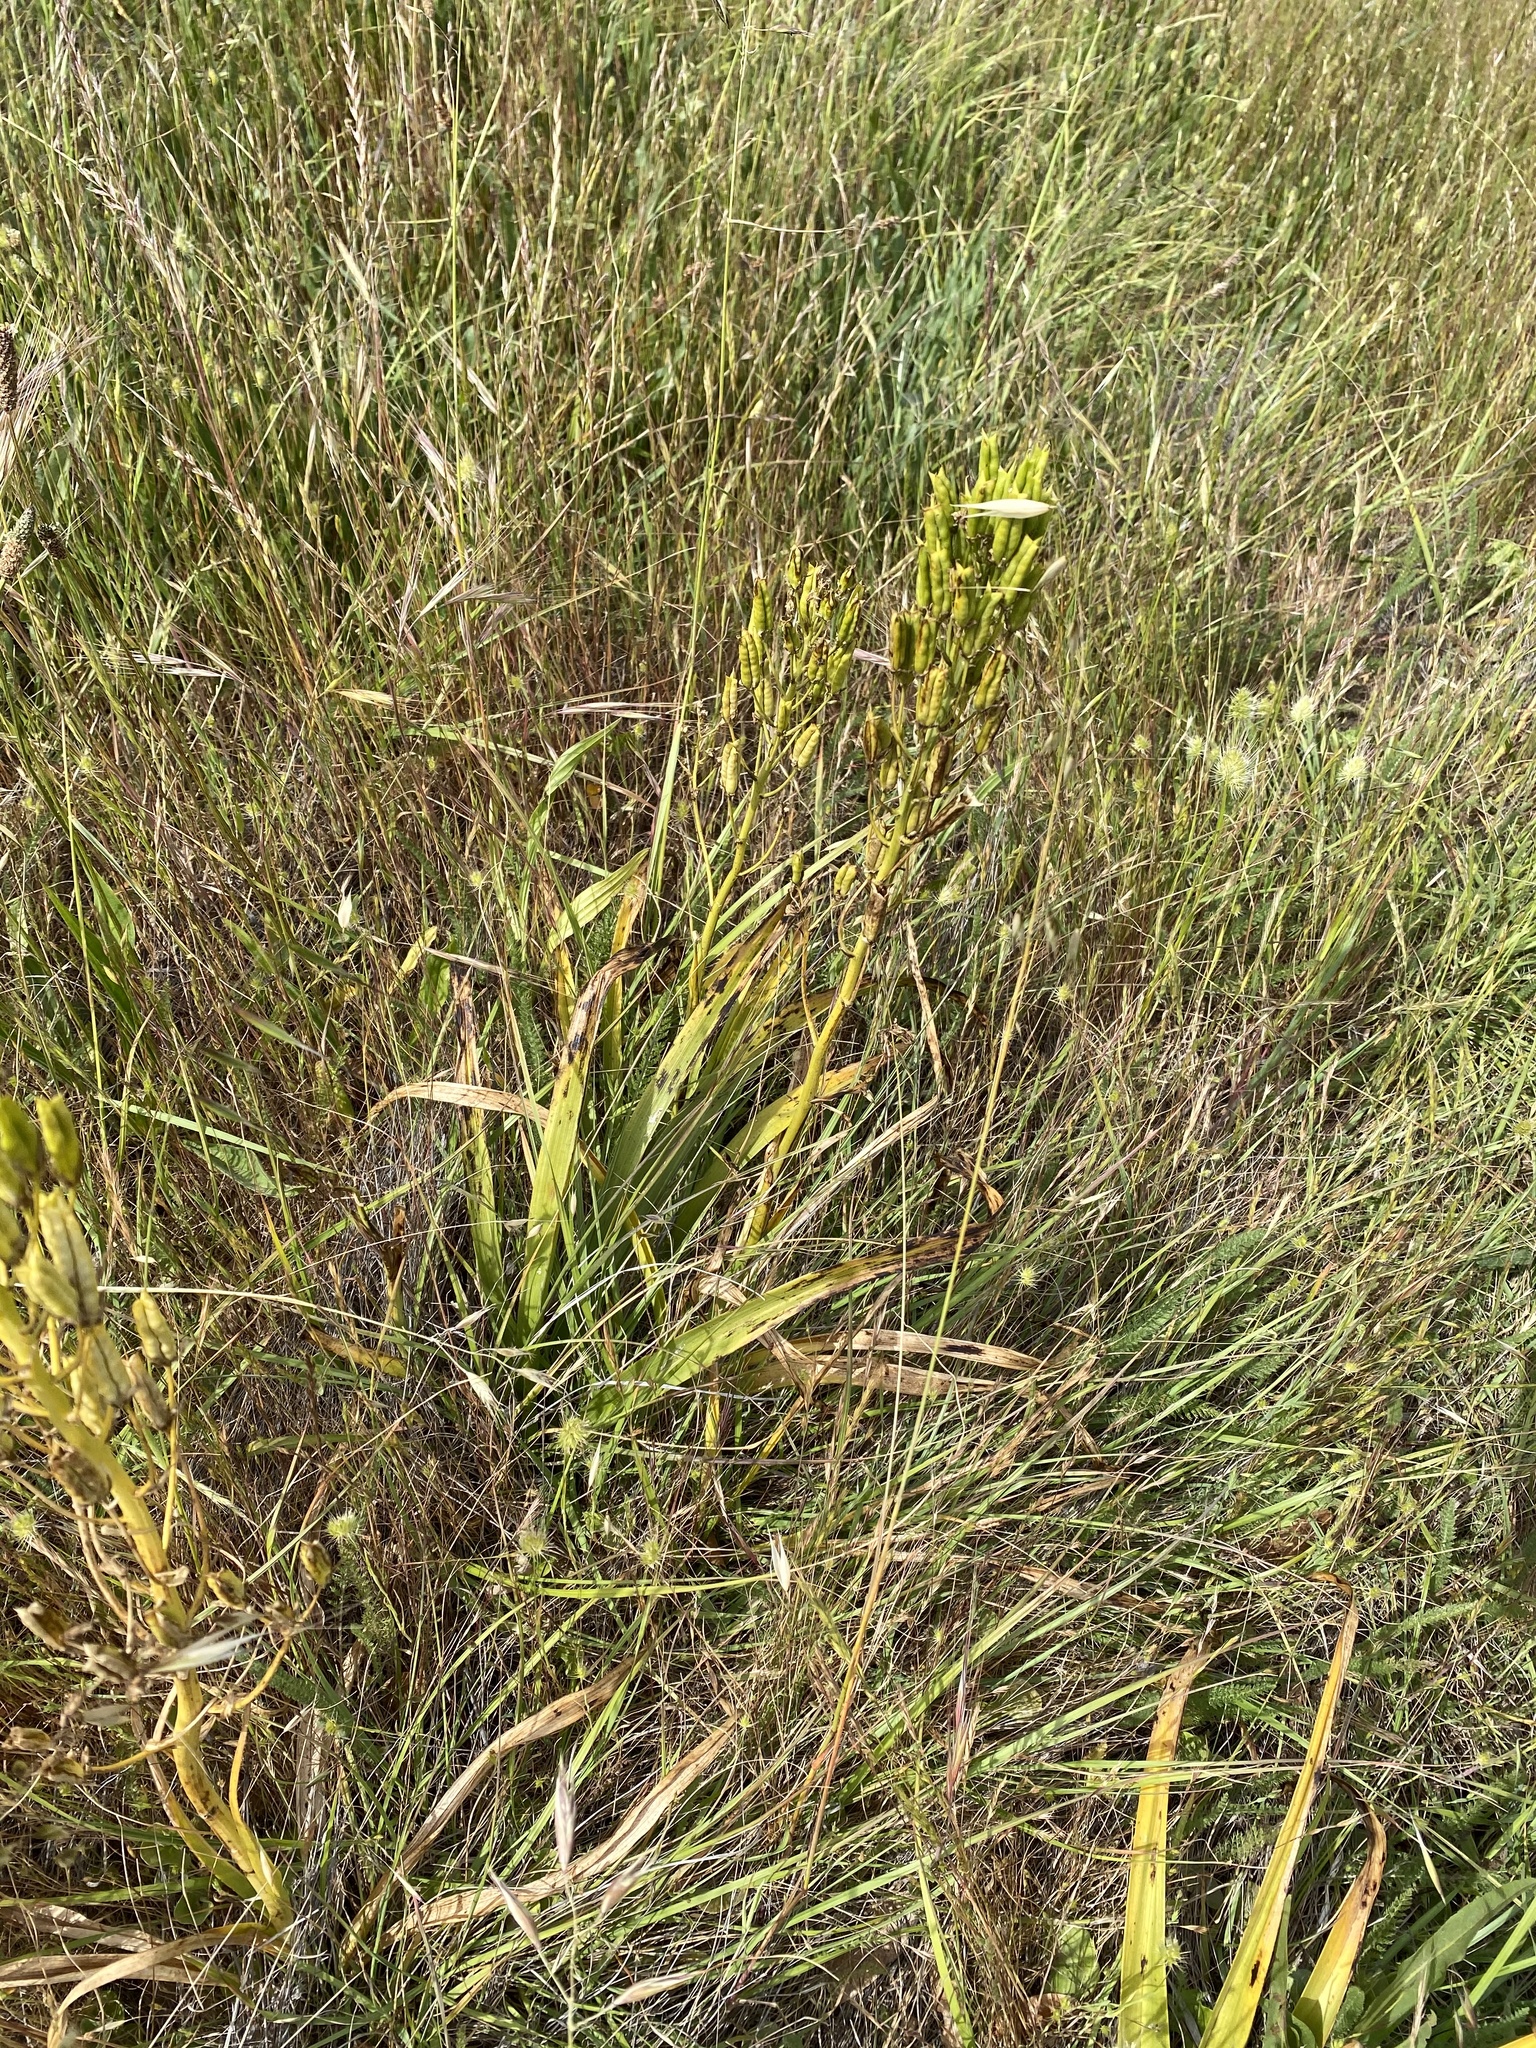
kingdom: Plantae
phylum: Tracheophyta
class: Liliopsida
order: Liliales
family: Melanthiaceae
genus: Toxicoscordion
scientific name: Toxicoscordion fremontii
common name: Fremont's death camas
